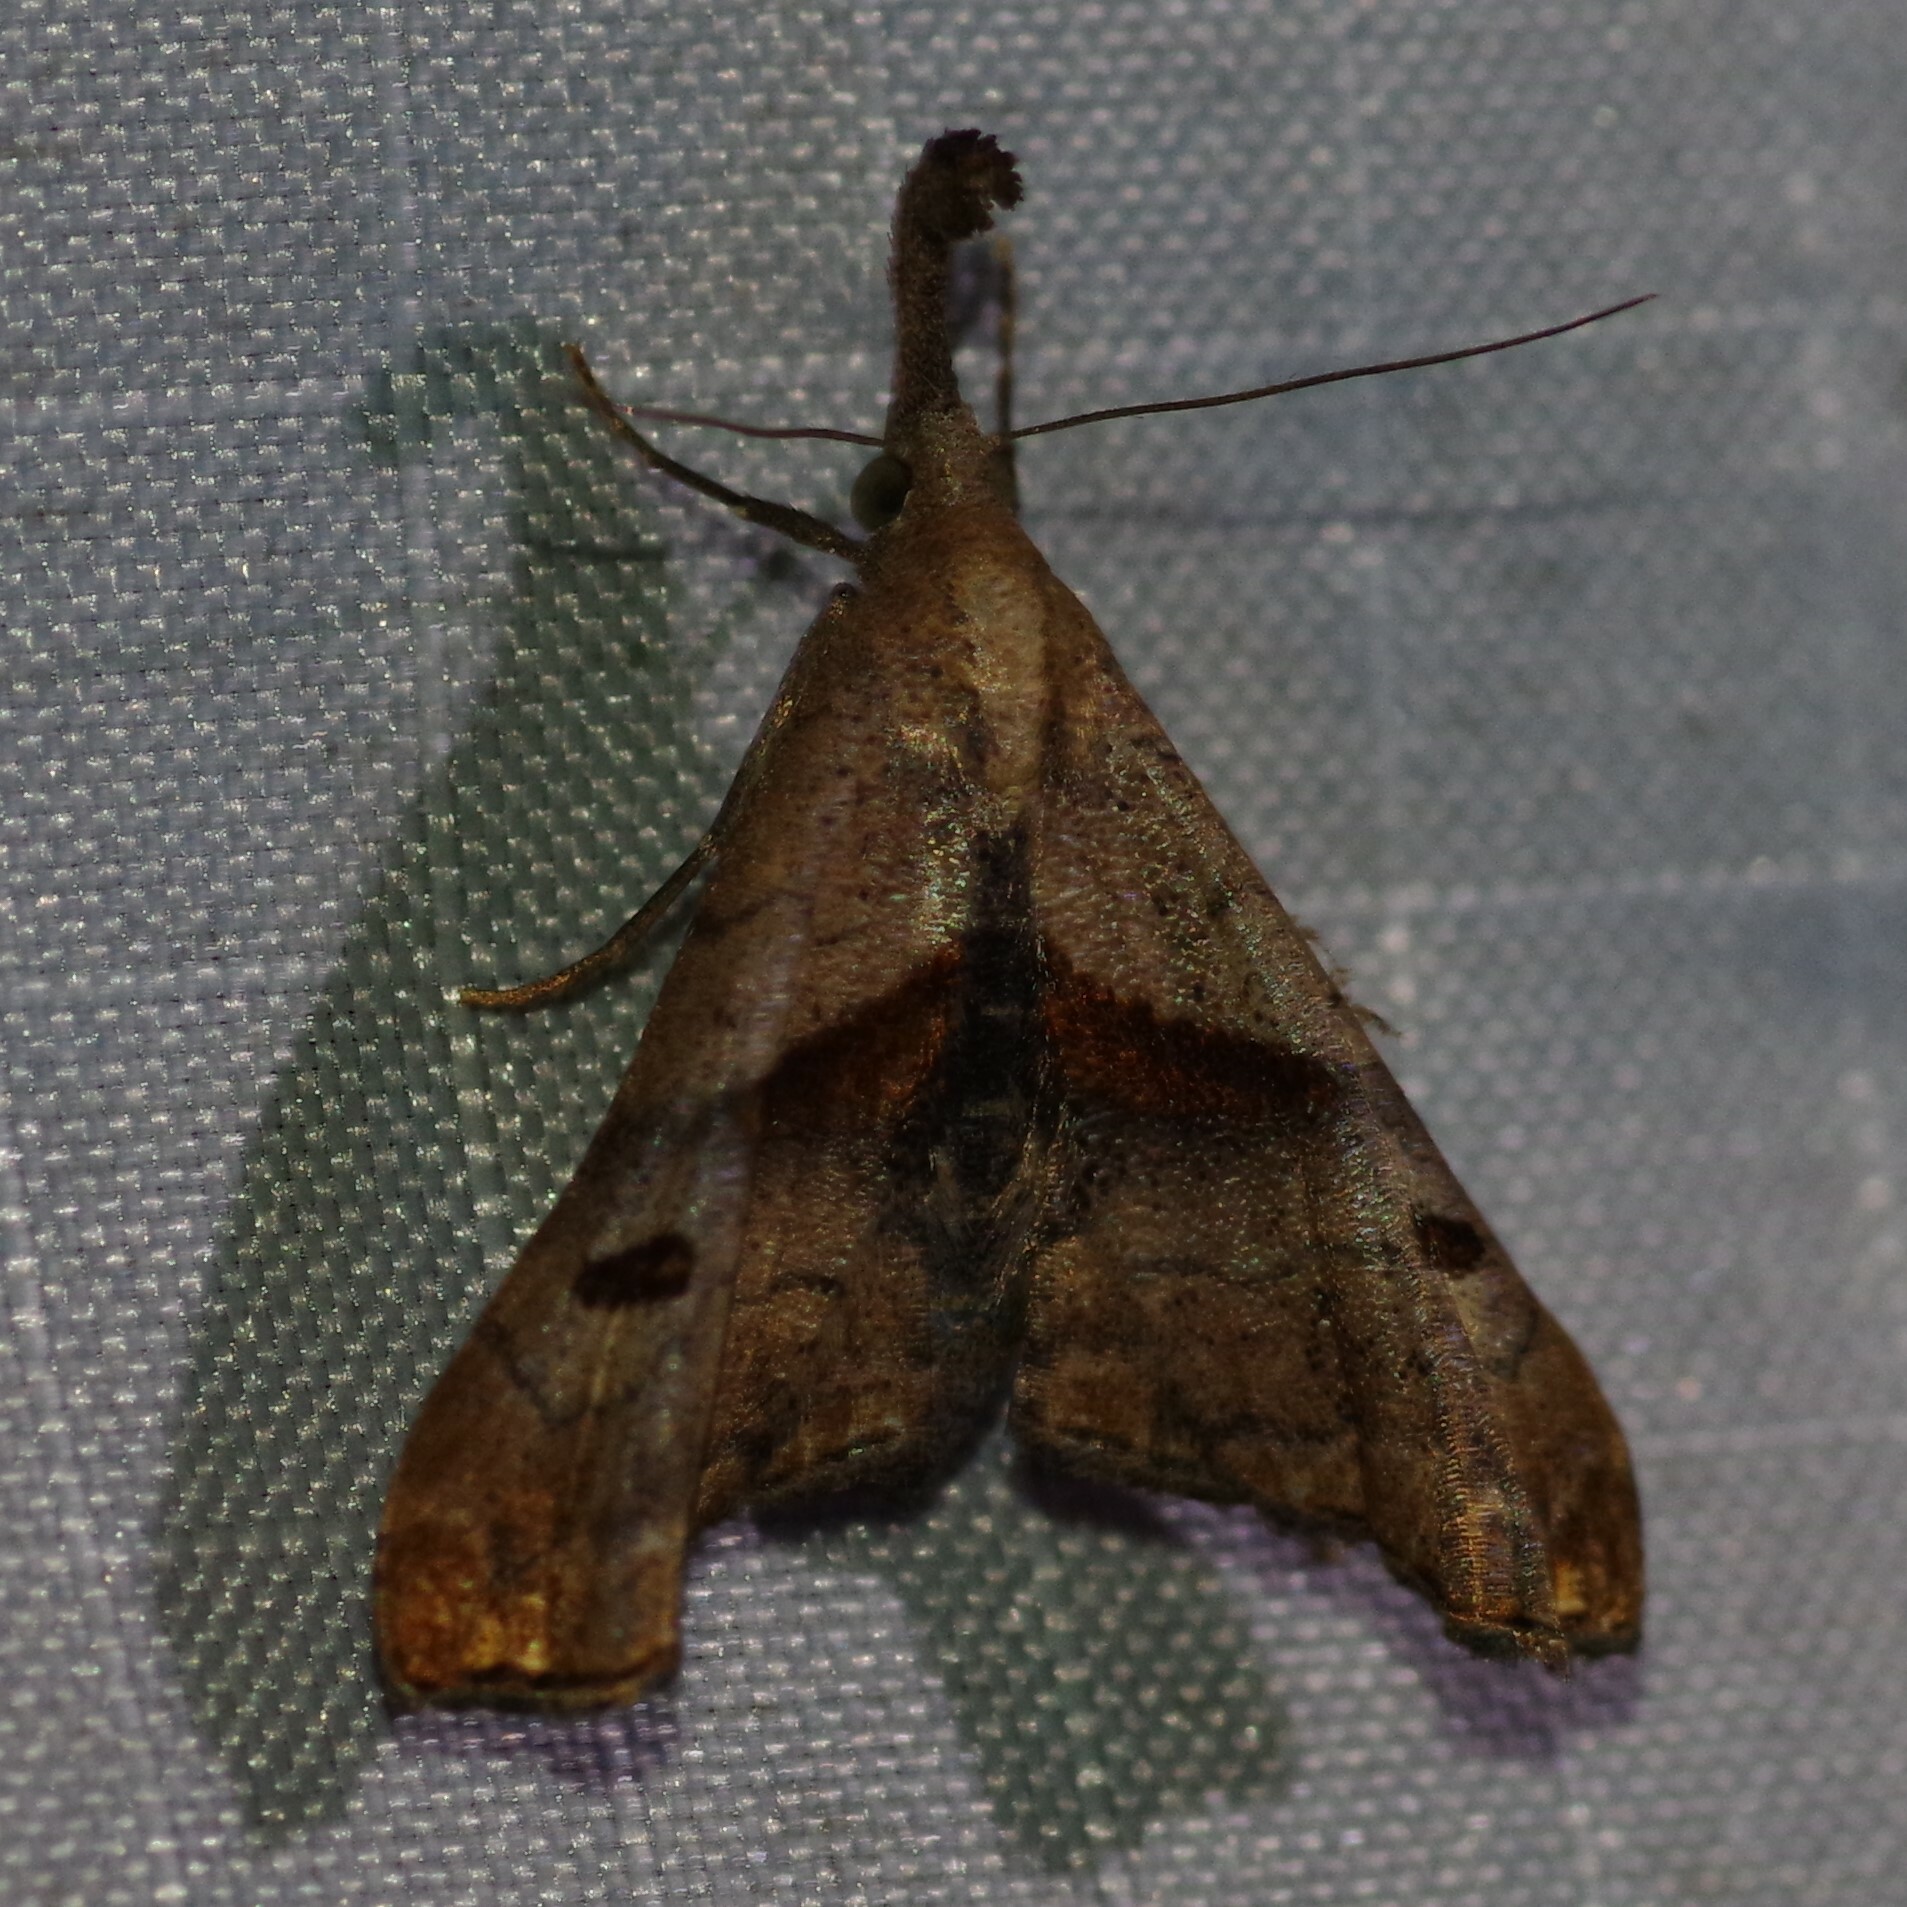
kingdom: Animalia
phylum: Arthropoda
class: Insecta
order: Lepidoptera
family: Erebidae
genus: Palthis
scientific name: Palthis angulalis
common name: Dark-spotted palthis moth
